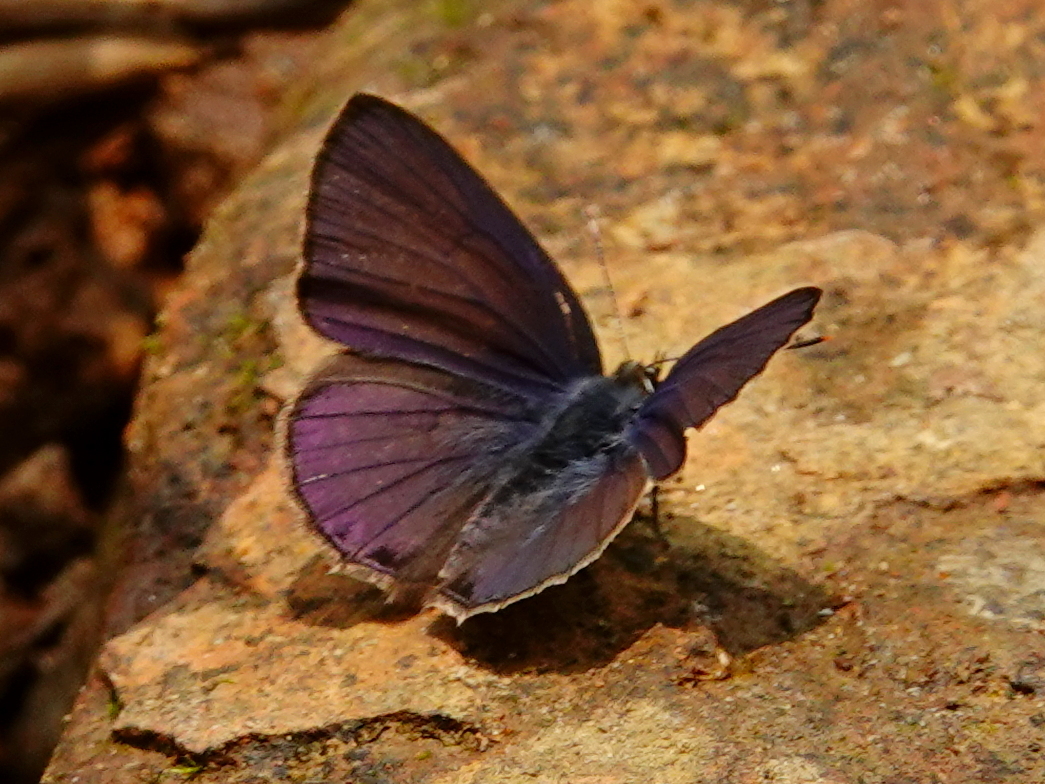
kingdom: Animalia
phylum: Arthropoda
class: Insecta
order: Lepidoptera
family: Lycaenidae
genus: Anthene
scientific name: Anthene emolus
